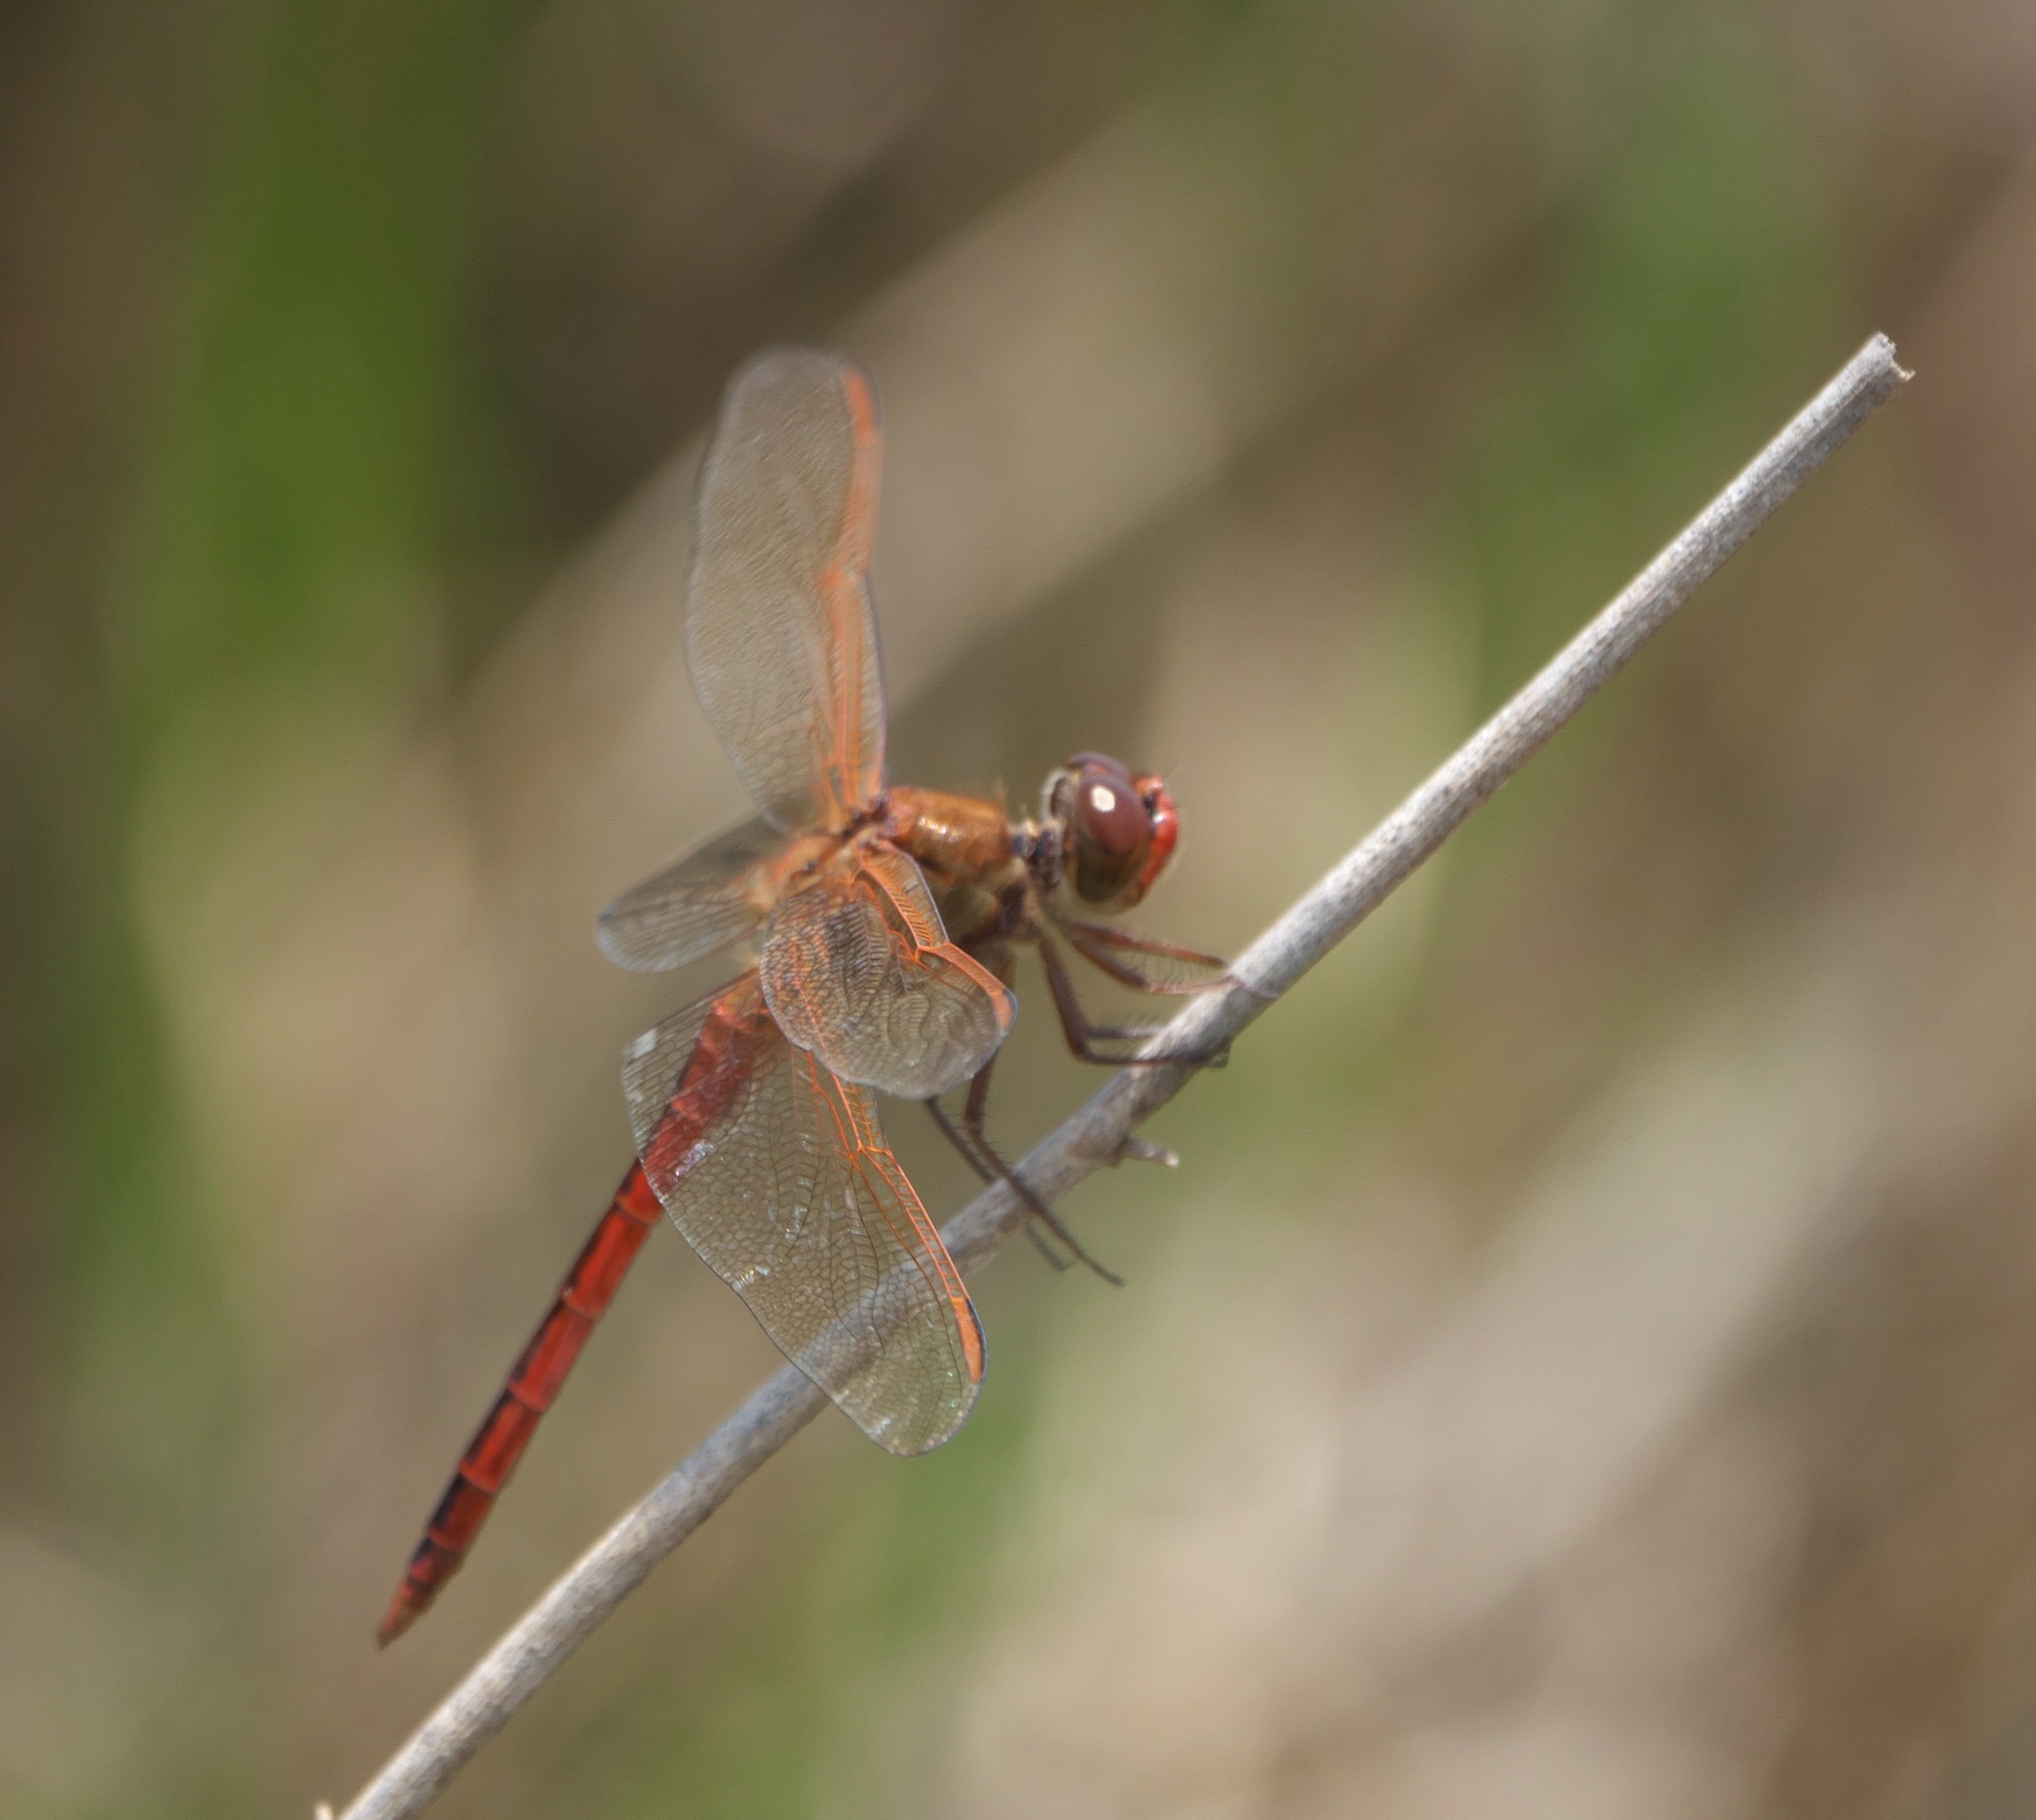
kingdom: Animalia
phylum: Arthropoda
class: Insecta
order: Odonata
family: Libellulidae
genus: Libellula
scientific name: Libellula needhami
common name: Needham's skimmer
